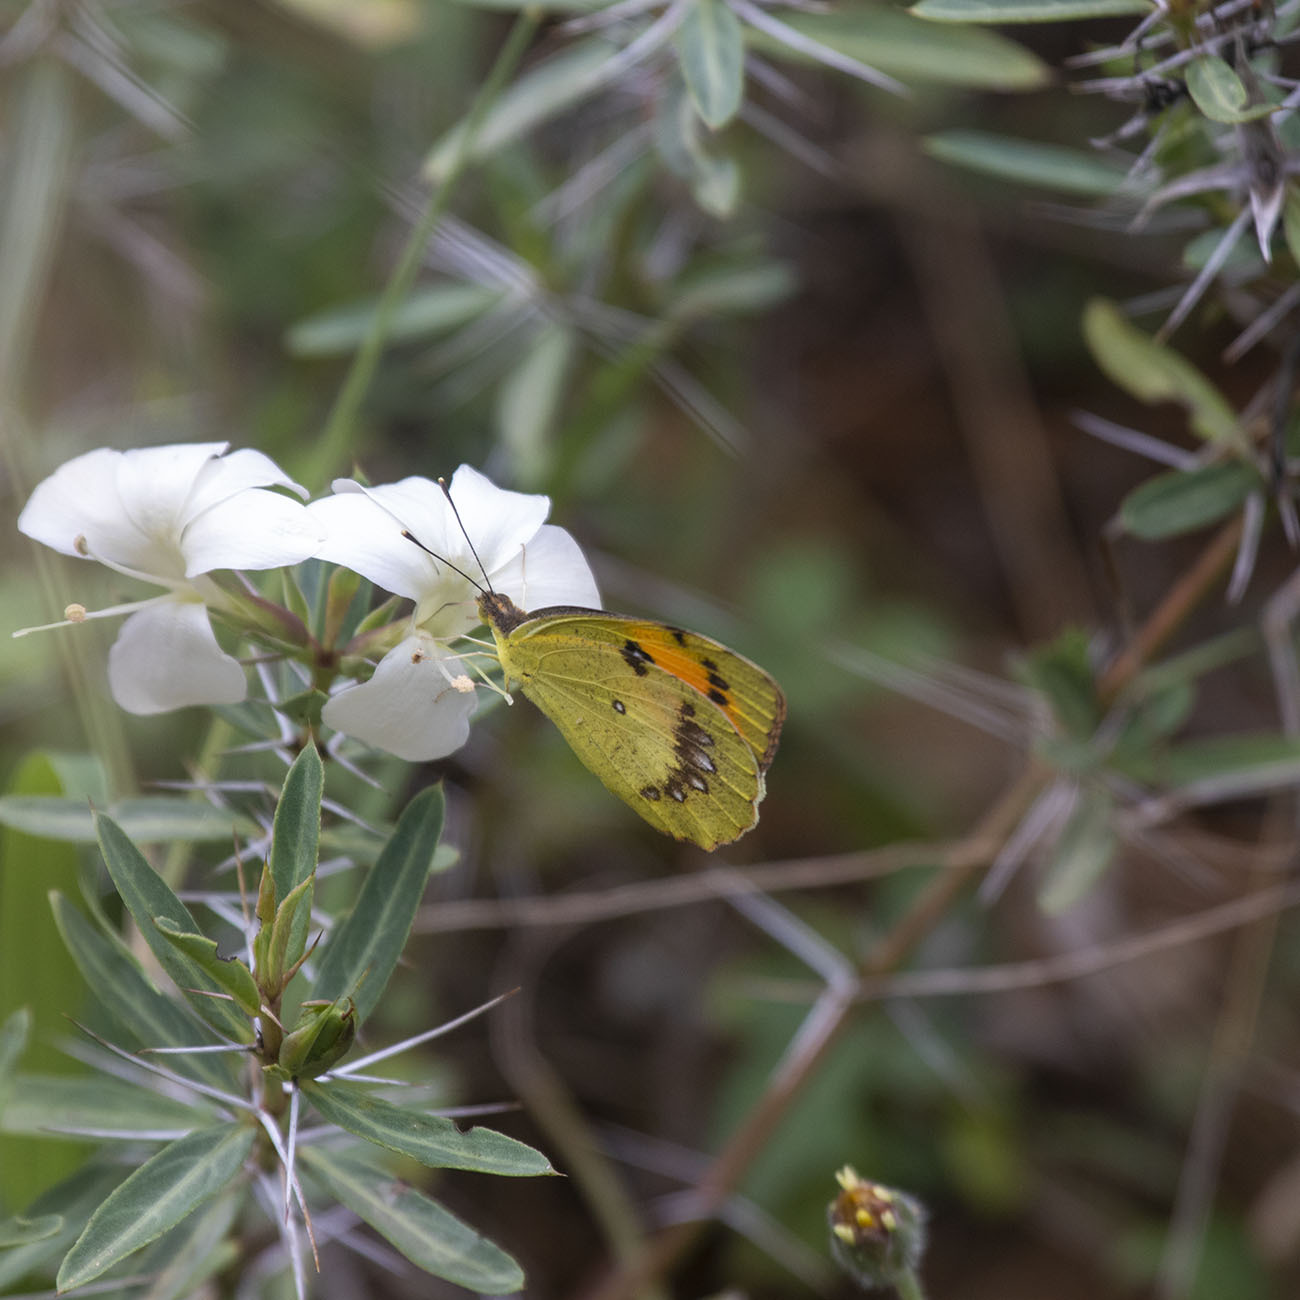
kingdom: Animalia
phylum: Arthropoda
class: Insecta
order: Lepidoptera
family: Pieridae
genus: Ixias
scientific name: Ixias marianne
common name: White orange tip
